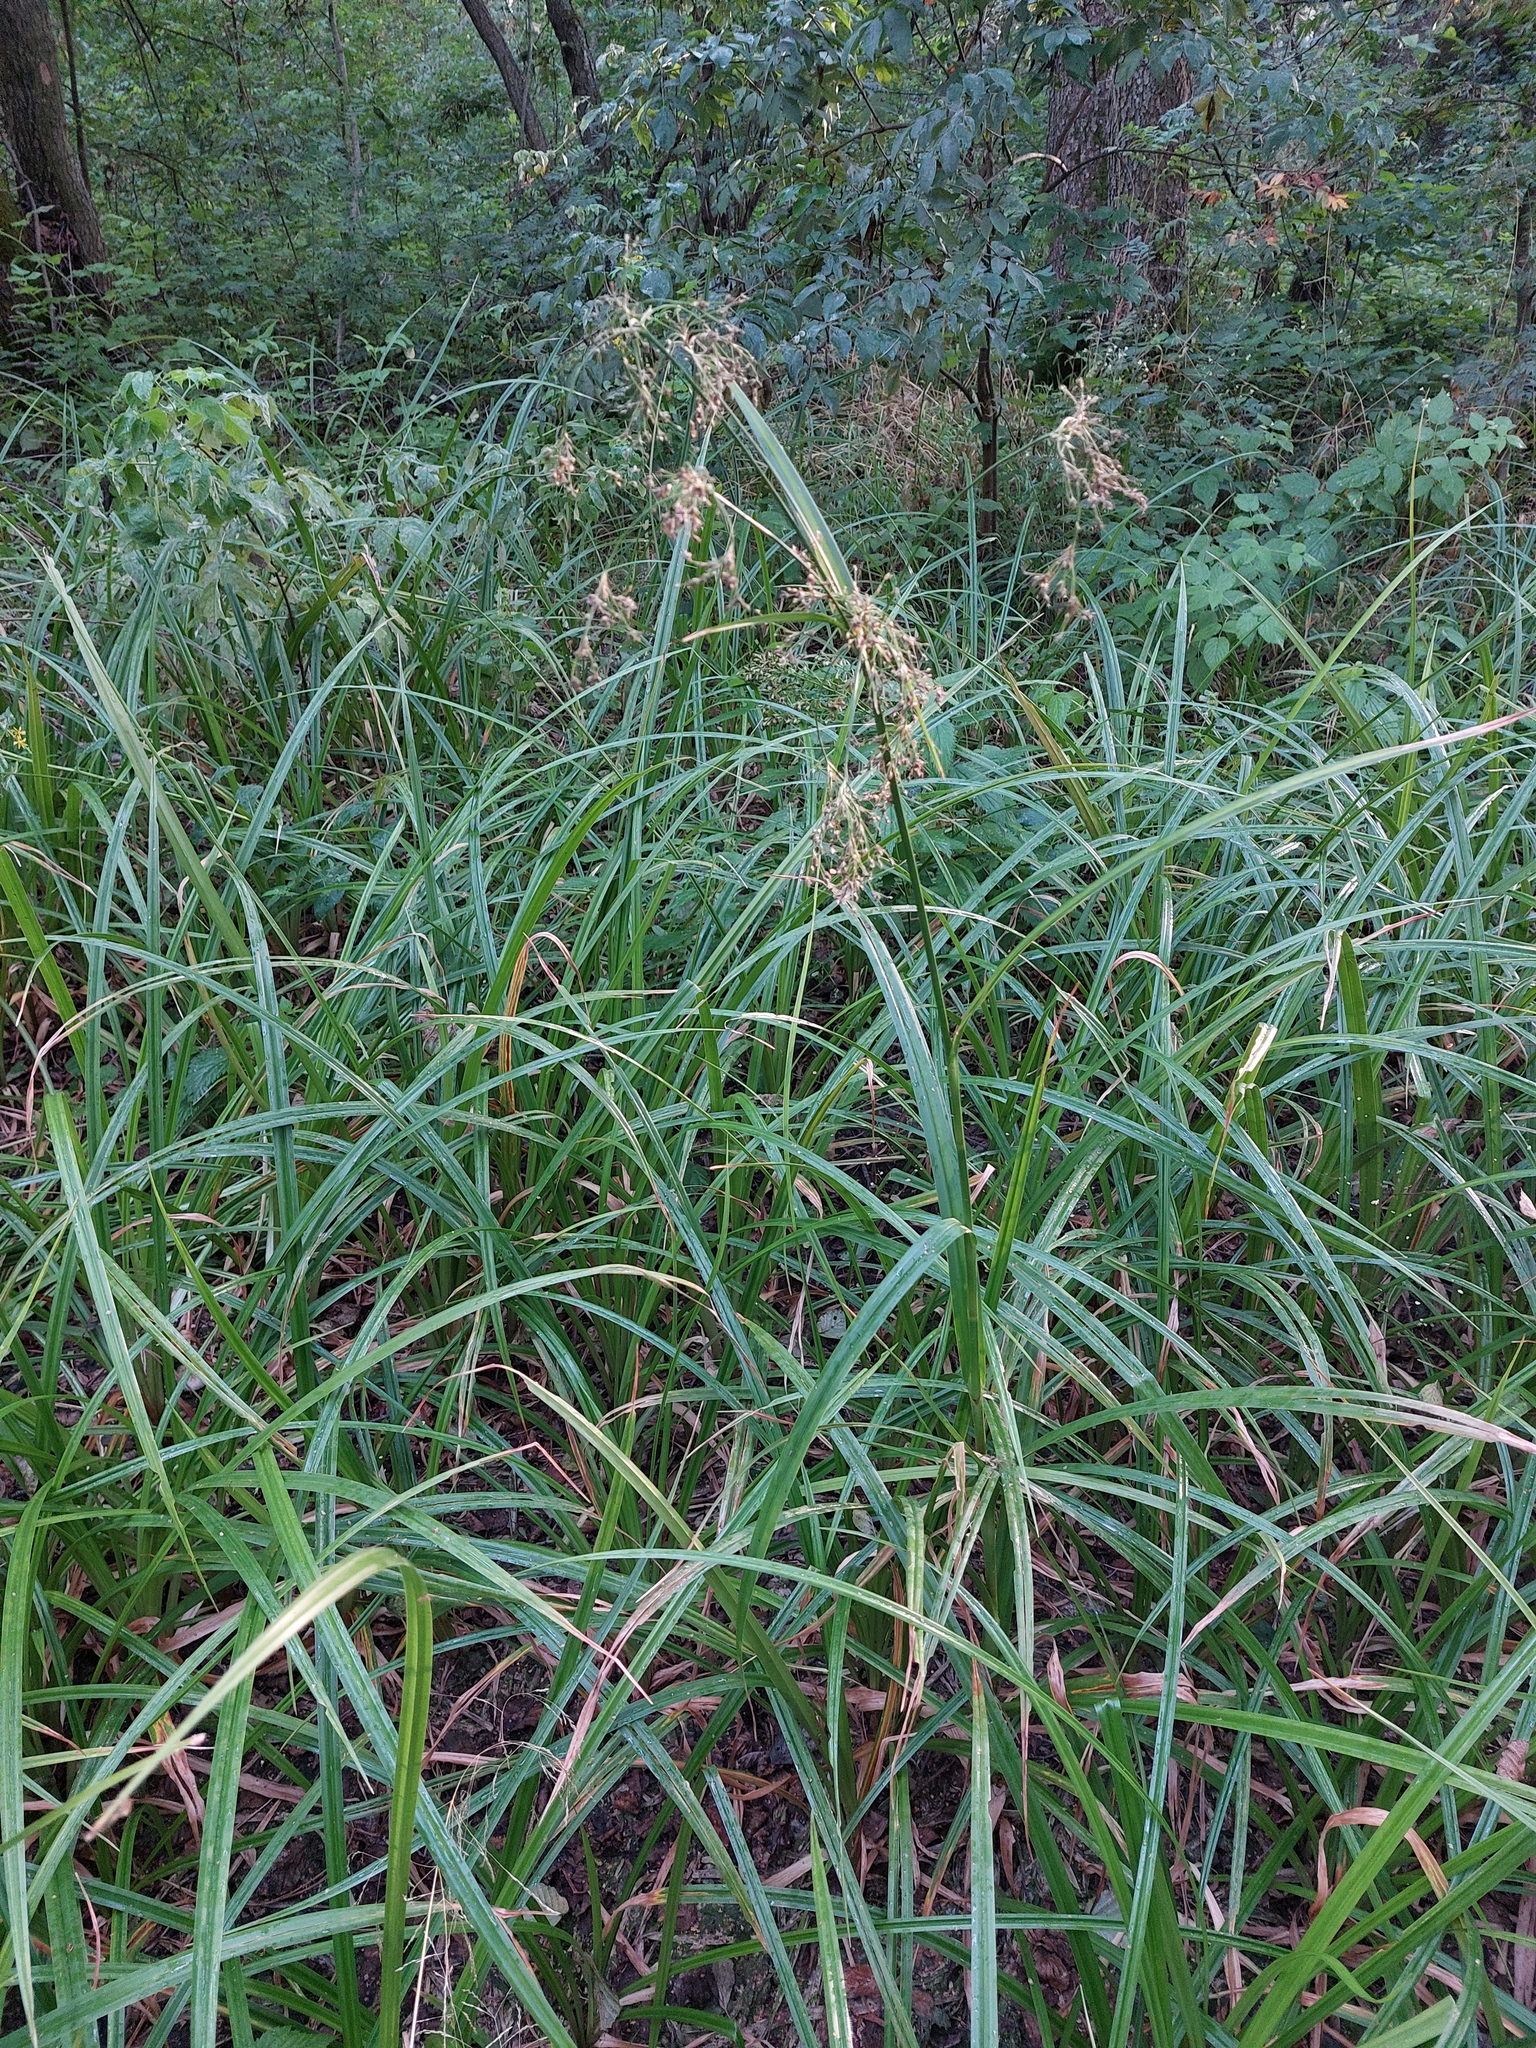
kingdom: Plantae
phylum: Tracheophyta
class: Liliopsida
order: Poales
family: Cyperaceae
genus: Scirpus
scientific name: Scirpus sylvaticus
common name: Wood club-rush
